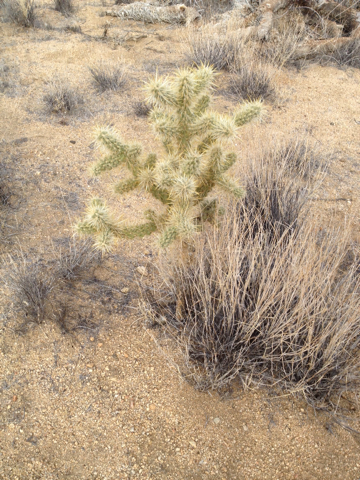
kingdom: Plantae
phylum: Tracheophyta
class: Magnoliopsida
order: Caryophyllales
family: Cactaceae
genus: Cylindropuntia
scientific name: Cylindropuntia echinocarpa
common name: Ground cholla
